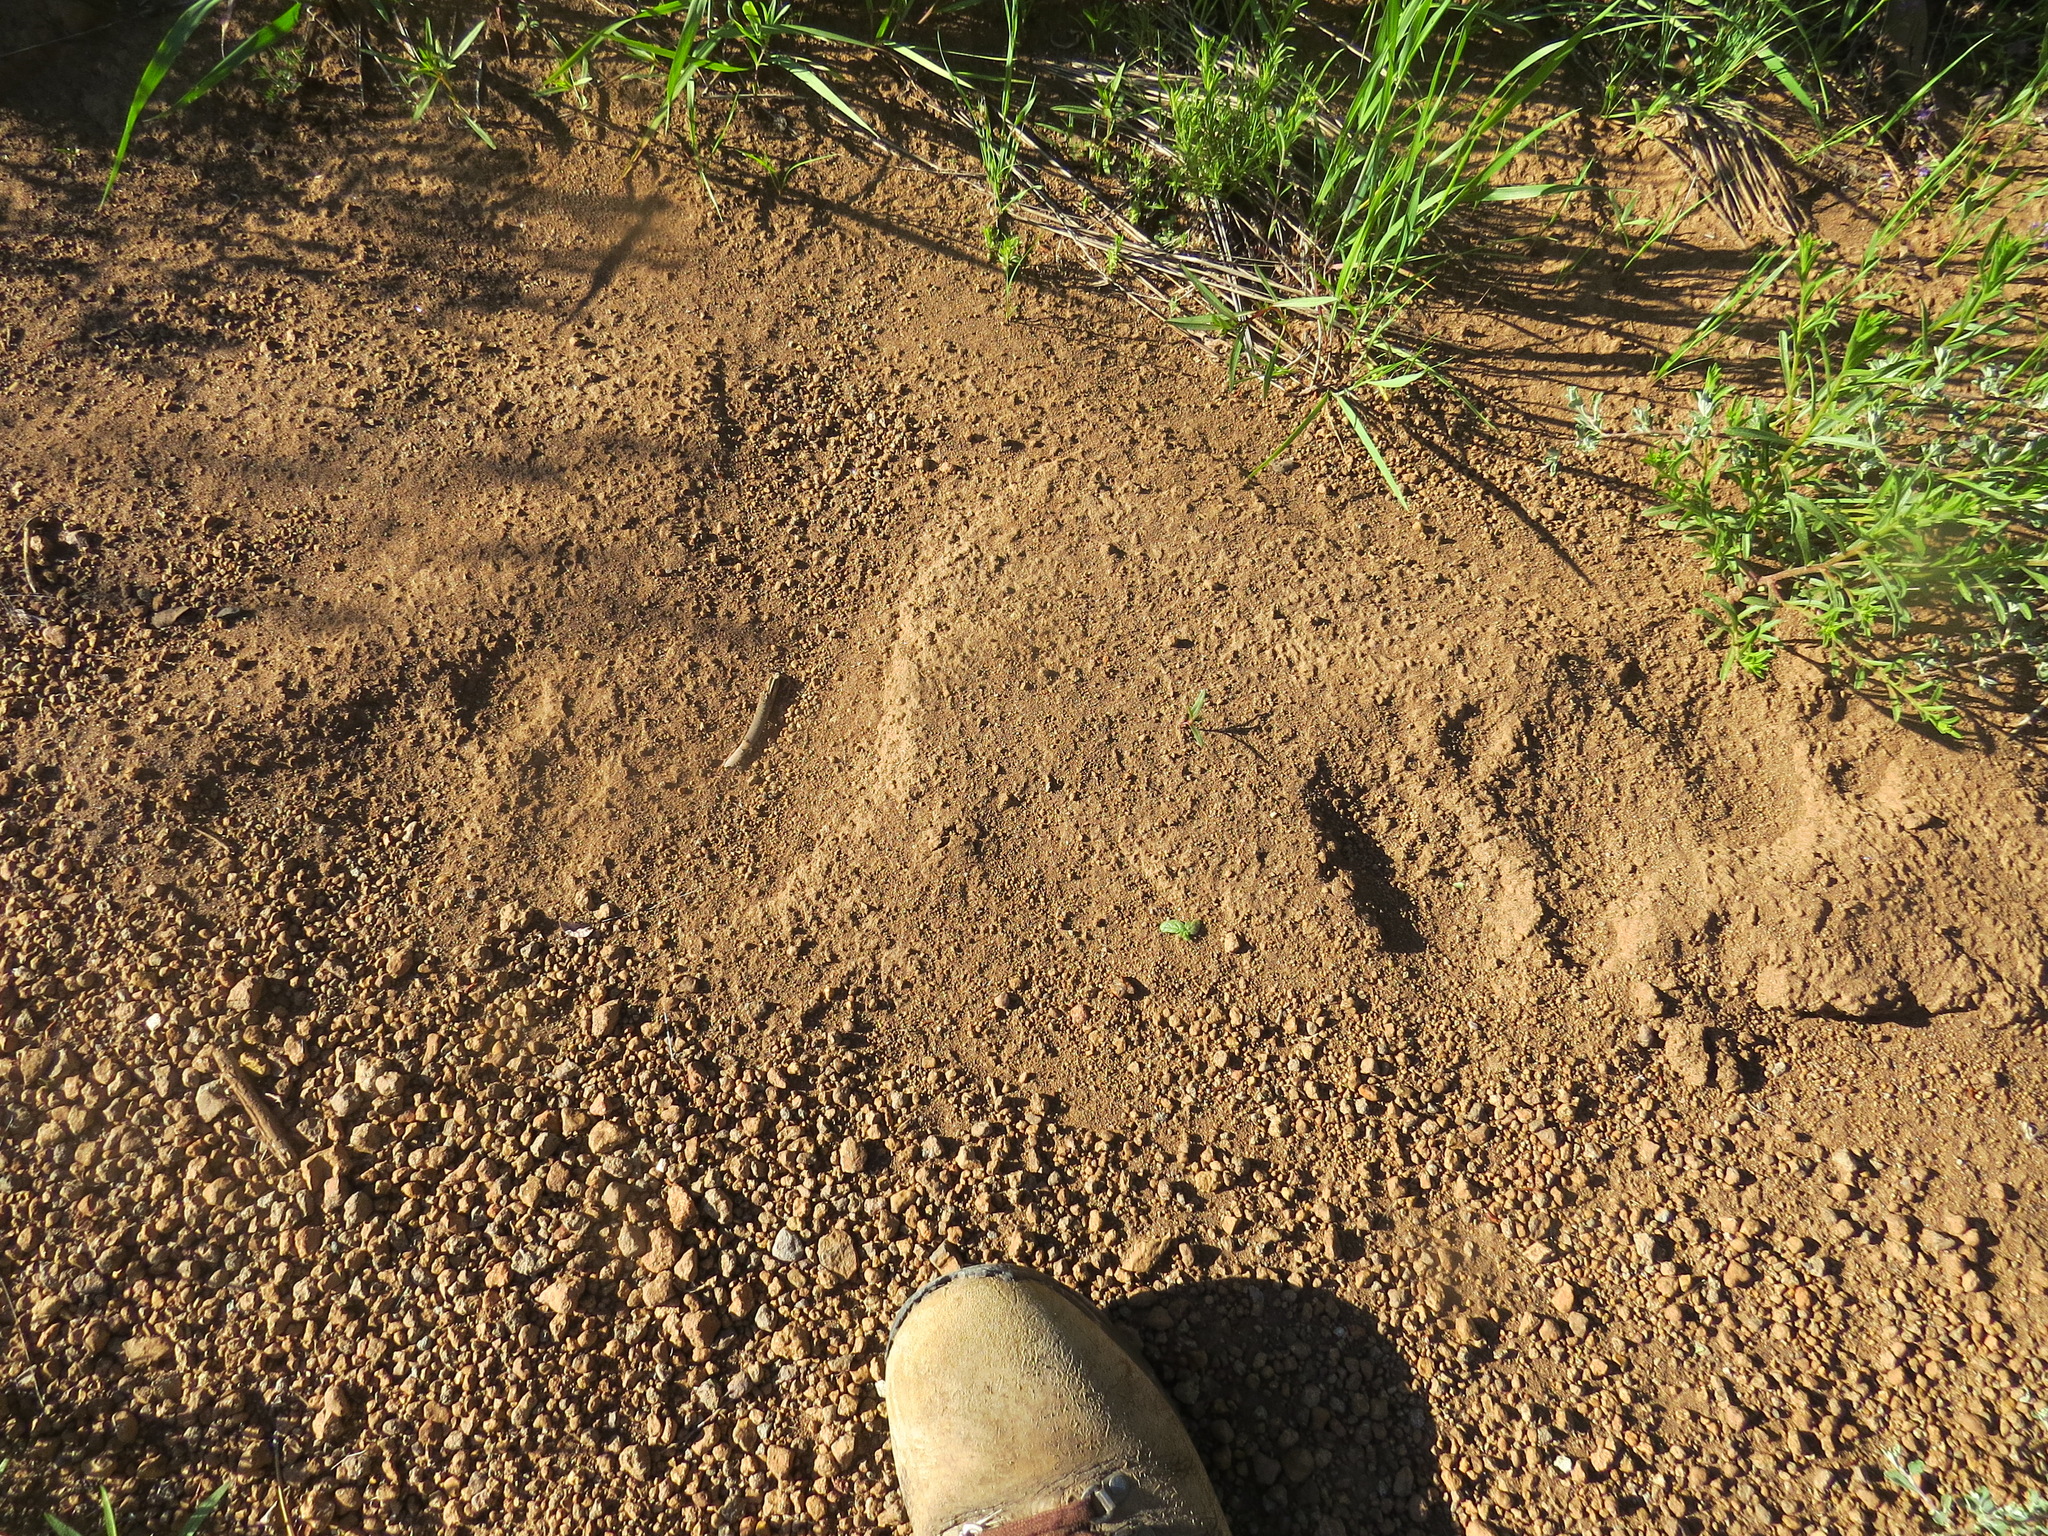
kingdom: Animalia
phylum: Chordata
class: Mammalia
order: Carnivora
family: Ursidae
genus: Ursus
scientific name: Ursus americanus
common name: American black bear
